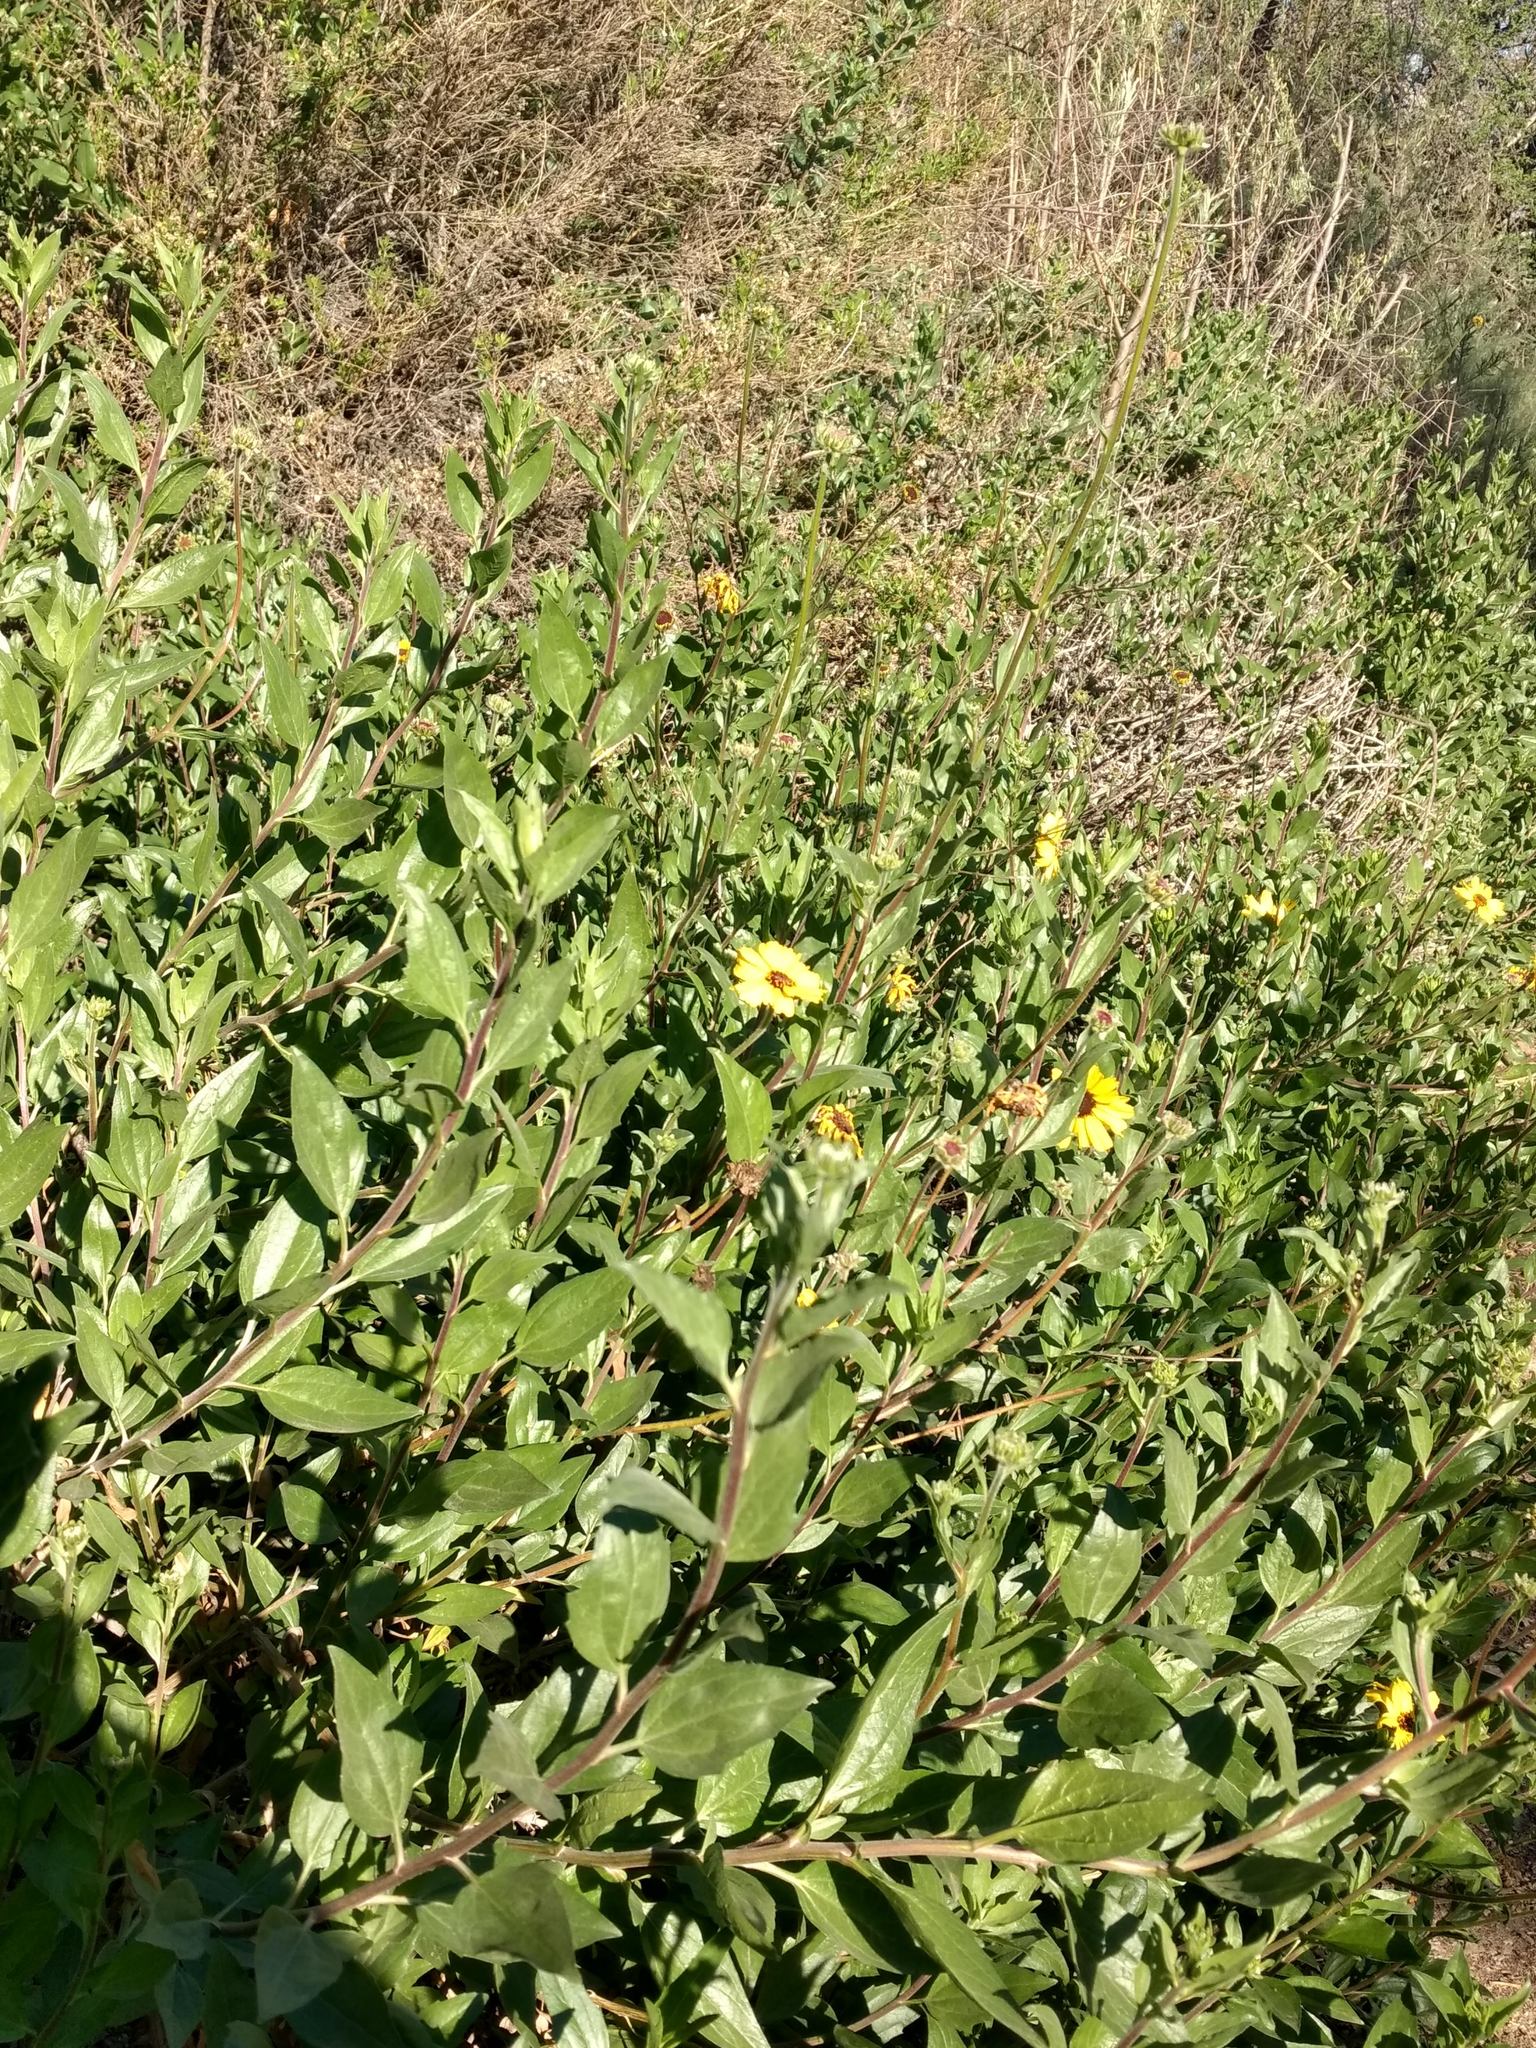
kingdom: Plantae
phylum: Tracheophyta
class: Magnoliopsida
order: Asterales
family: Asteraceae
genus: Encelia
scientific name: Encelia californica
